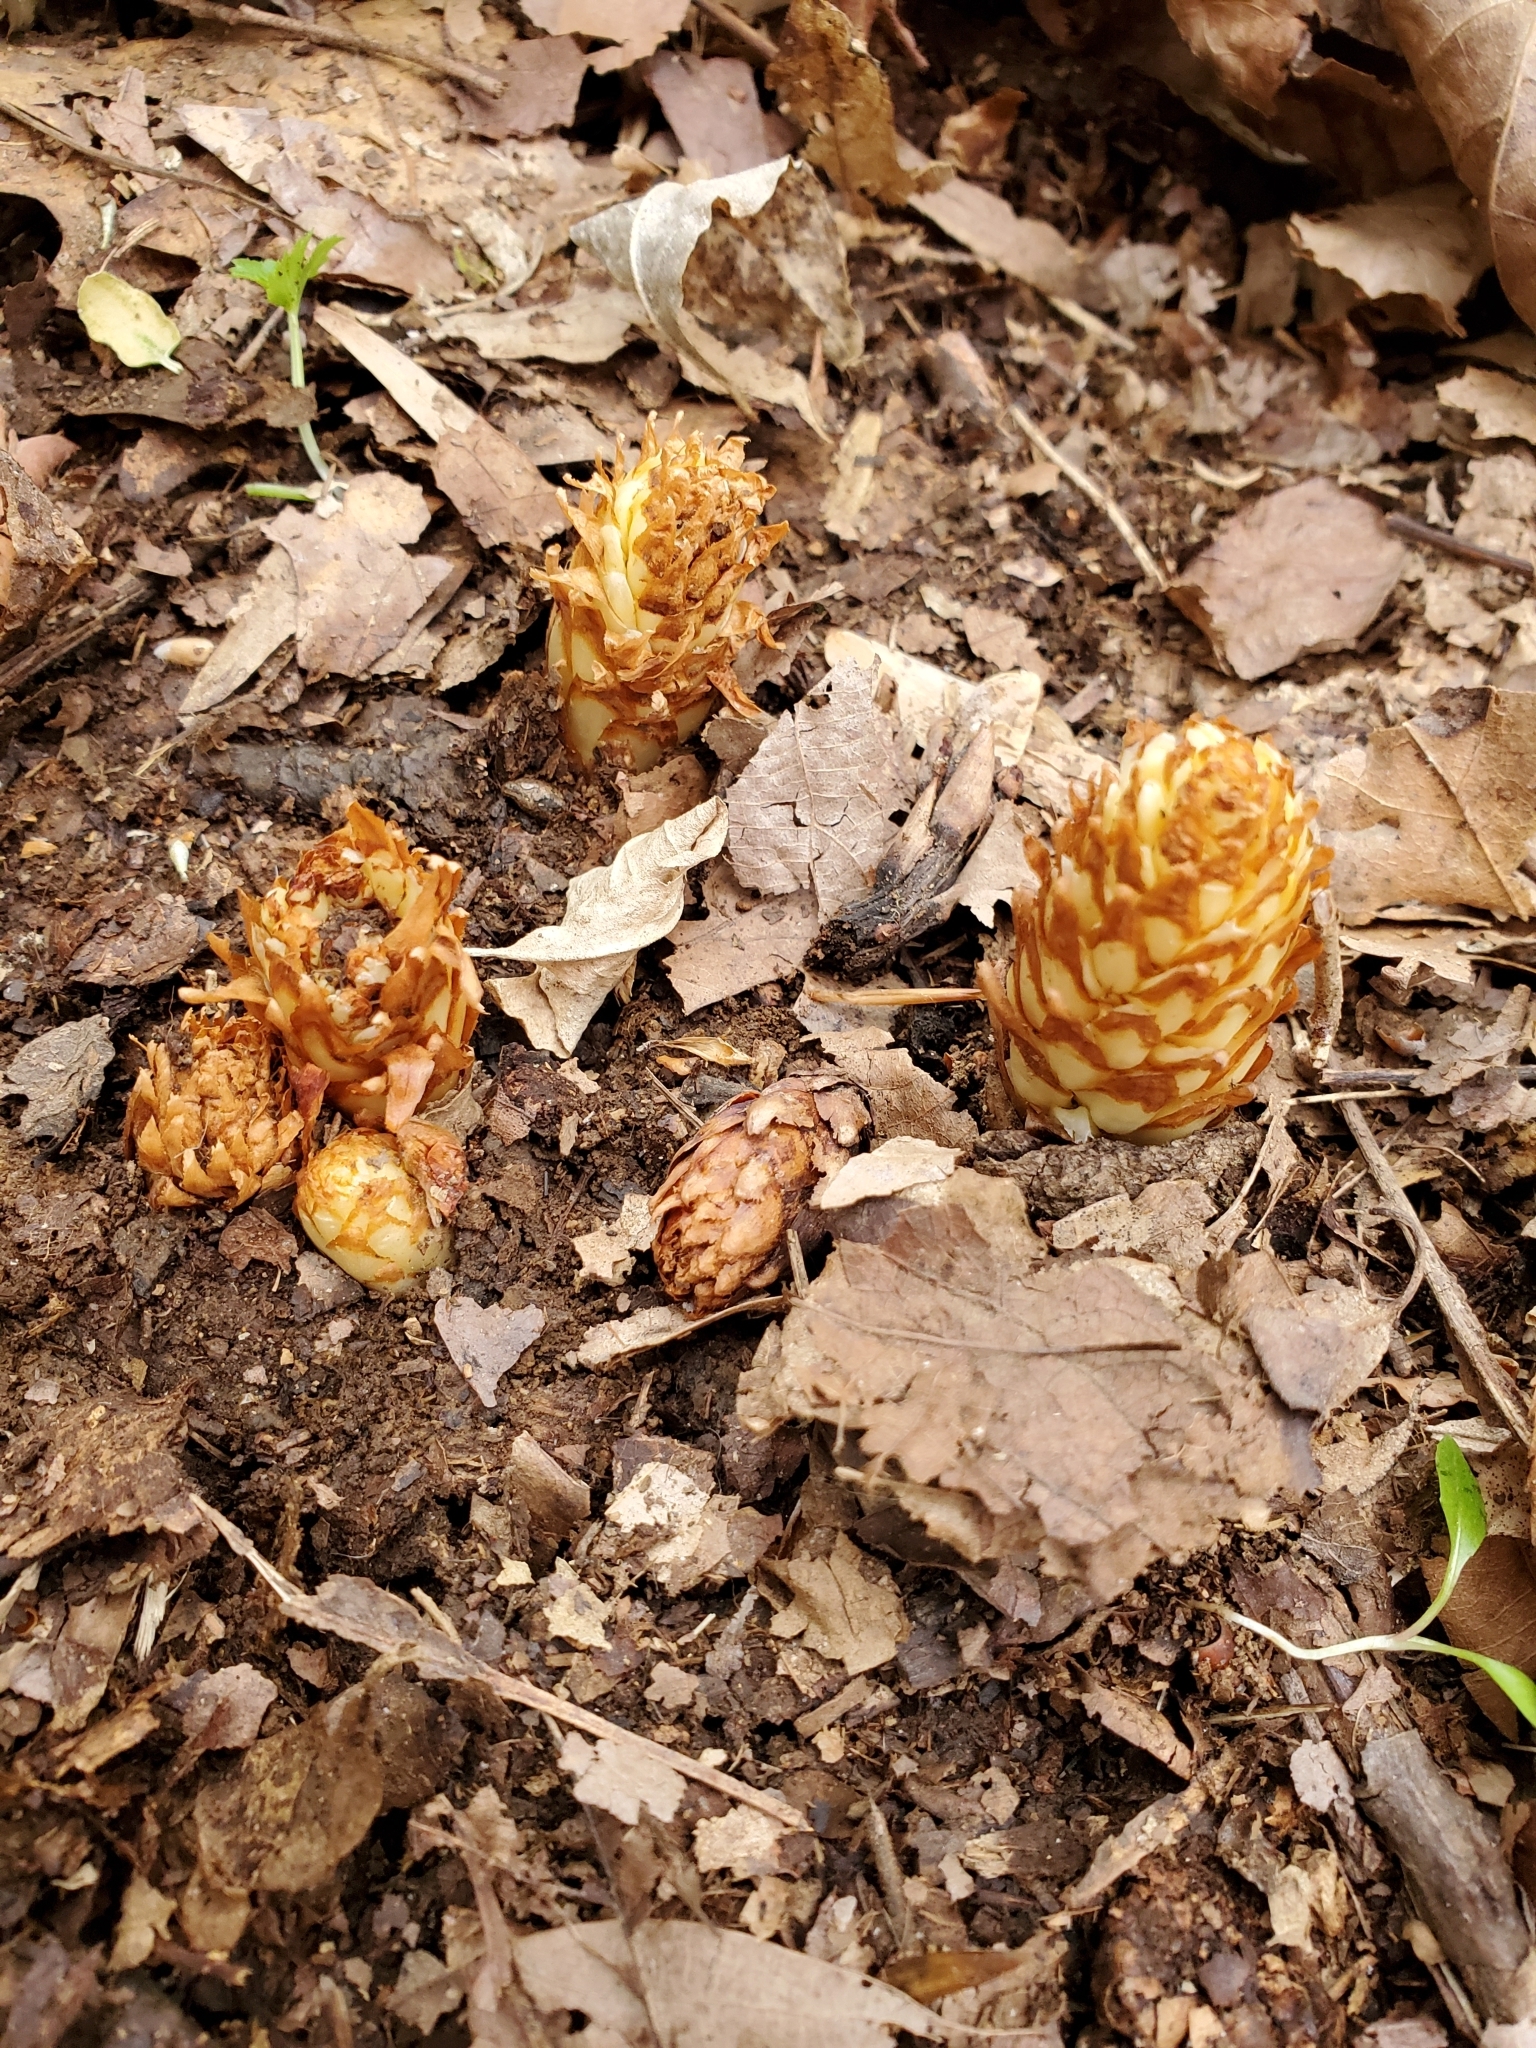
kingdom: Plantae
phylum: Tracheophyta
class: Magnoliopsida
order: Lamiales
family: Orobanchaceae
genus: Conopholis
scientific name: Conopholis americana
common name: American cancer-root
